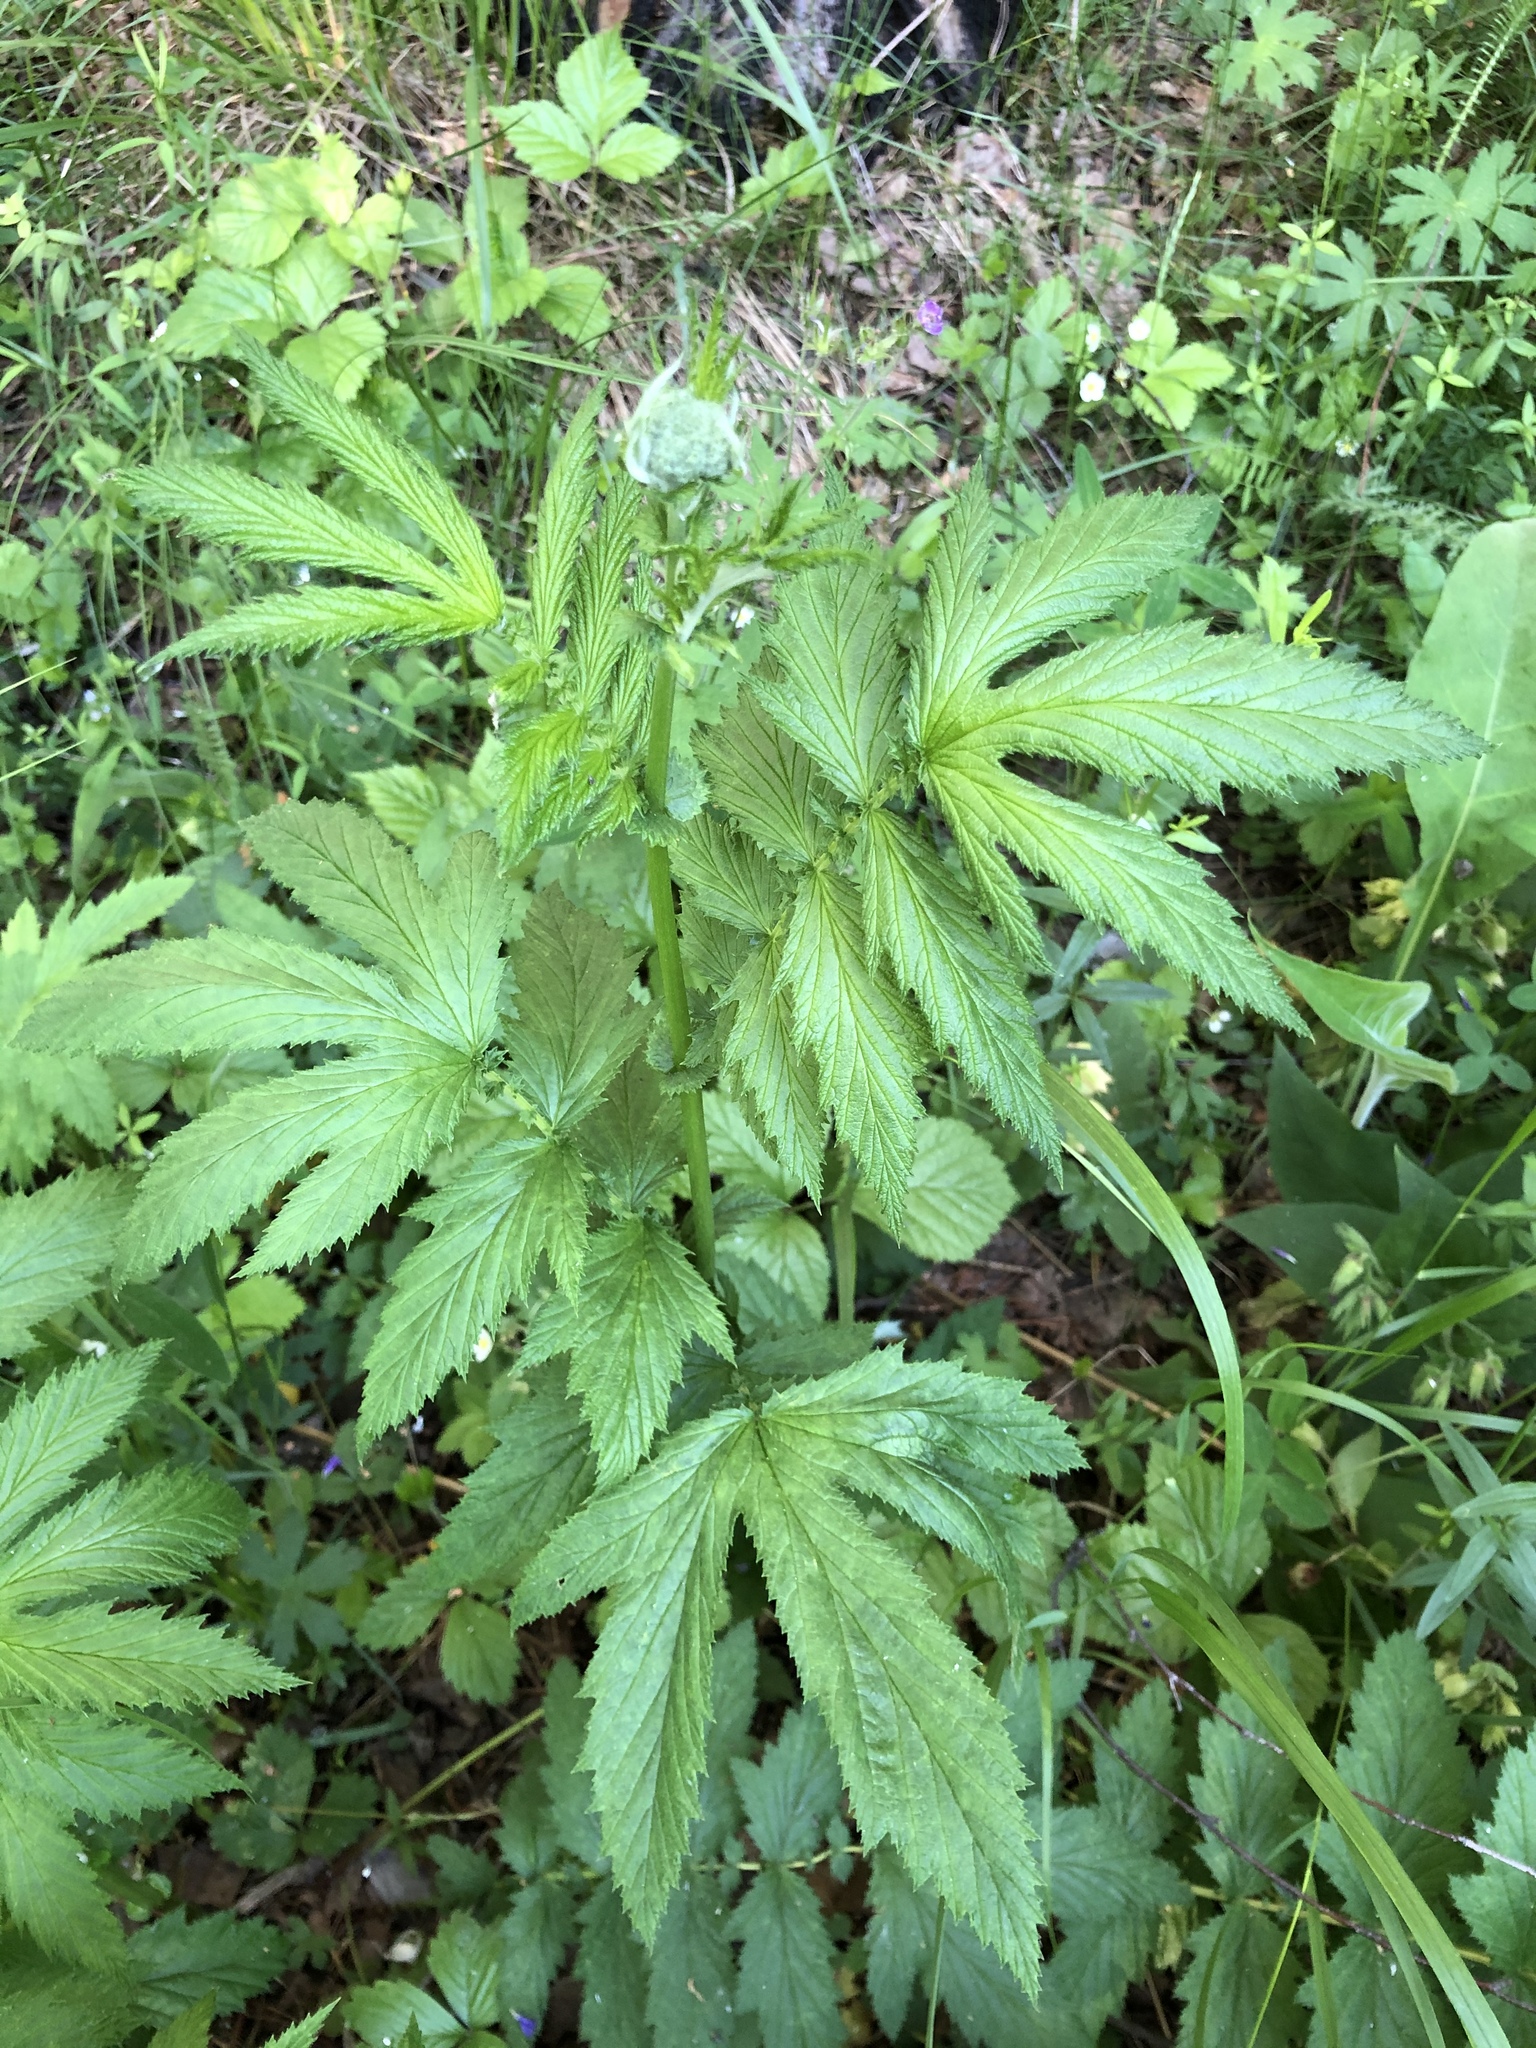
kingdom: Plantae
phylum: Tracheophyta
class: Magnoliopsida
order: Rosales
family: Rosaceae
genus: Filipendula
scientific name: Filipendula ulmaria
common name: Meadowsweet
